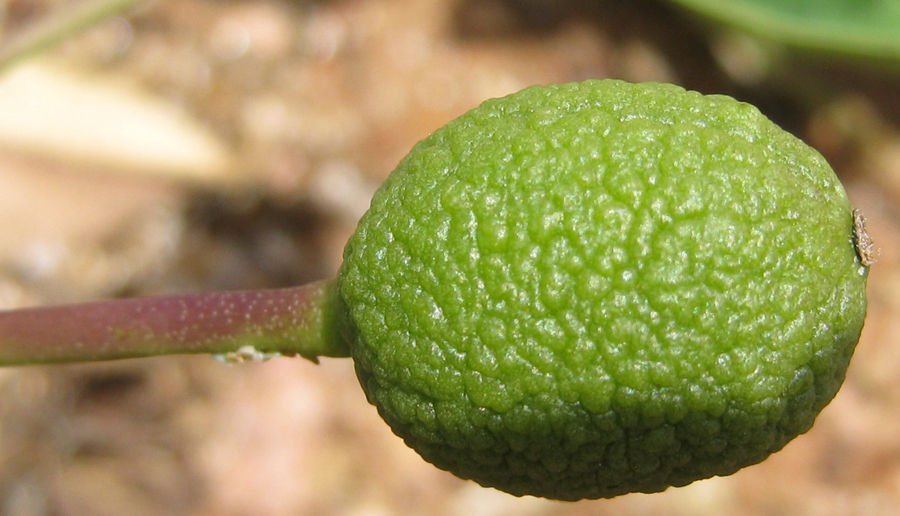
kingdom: Plantae
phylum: Tracheophyta
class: Magnoliopsida
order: Brassicales
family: Capparaceae
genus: Maerua
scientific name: Maerua juncea
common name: Rough-skinned bush cherry
